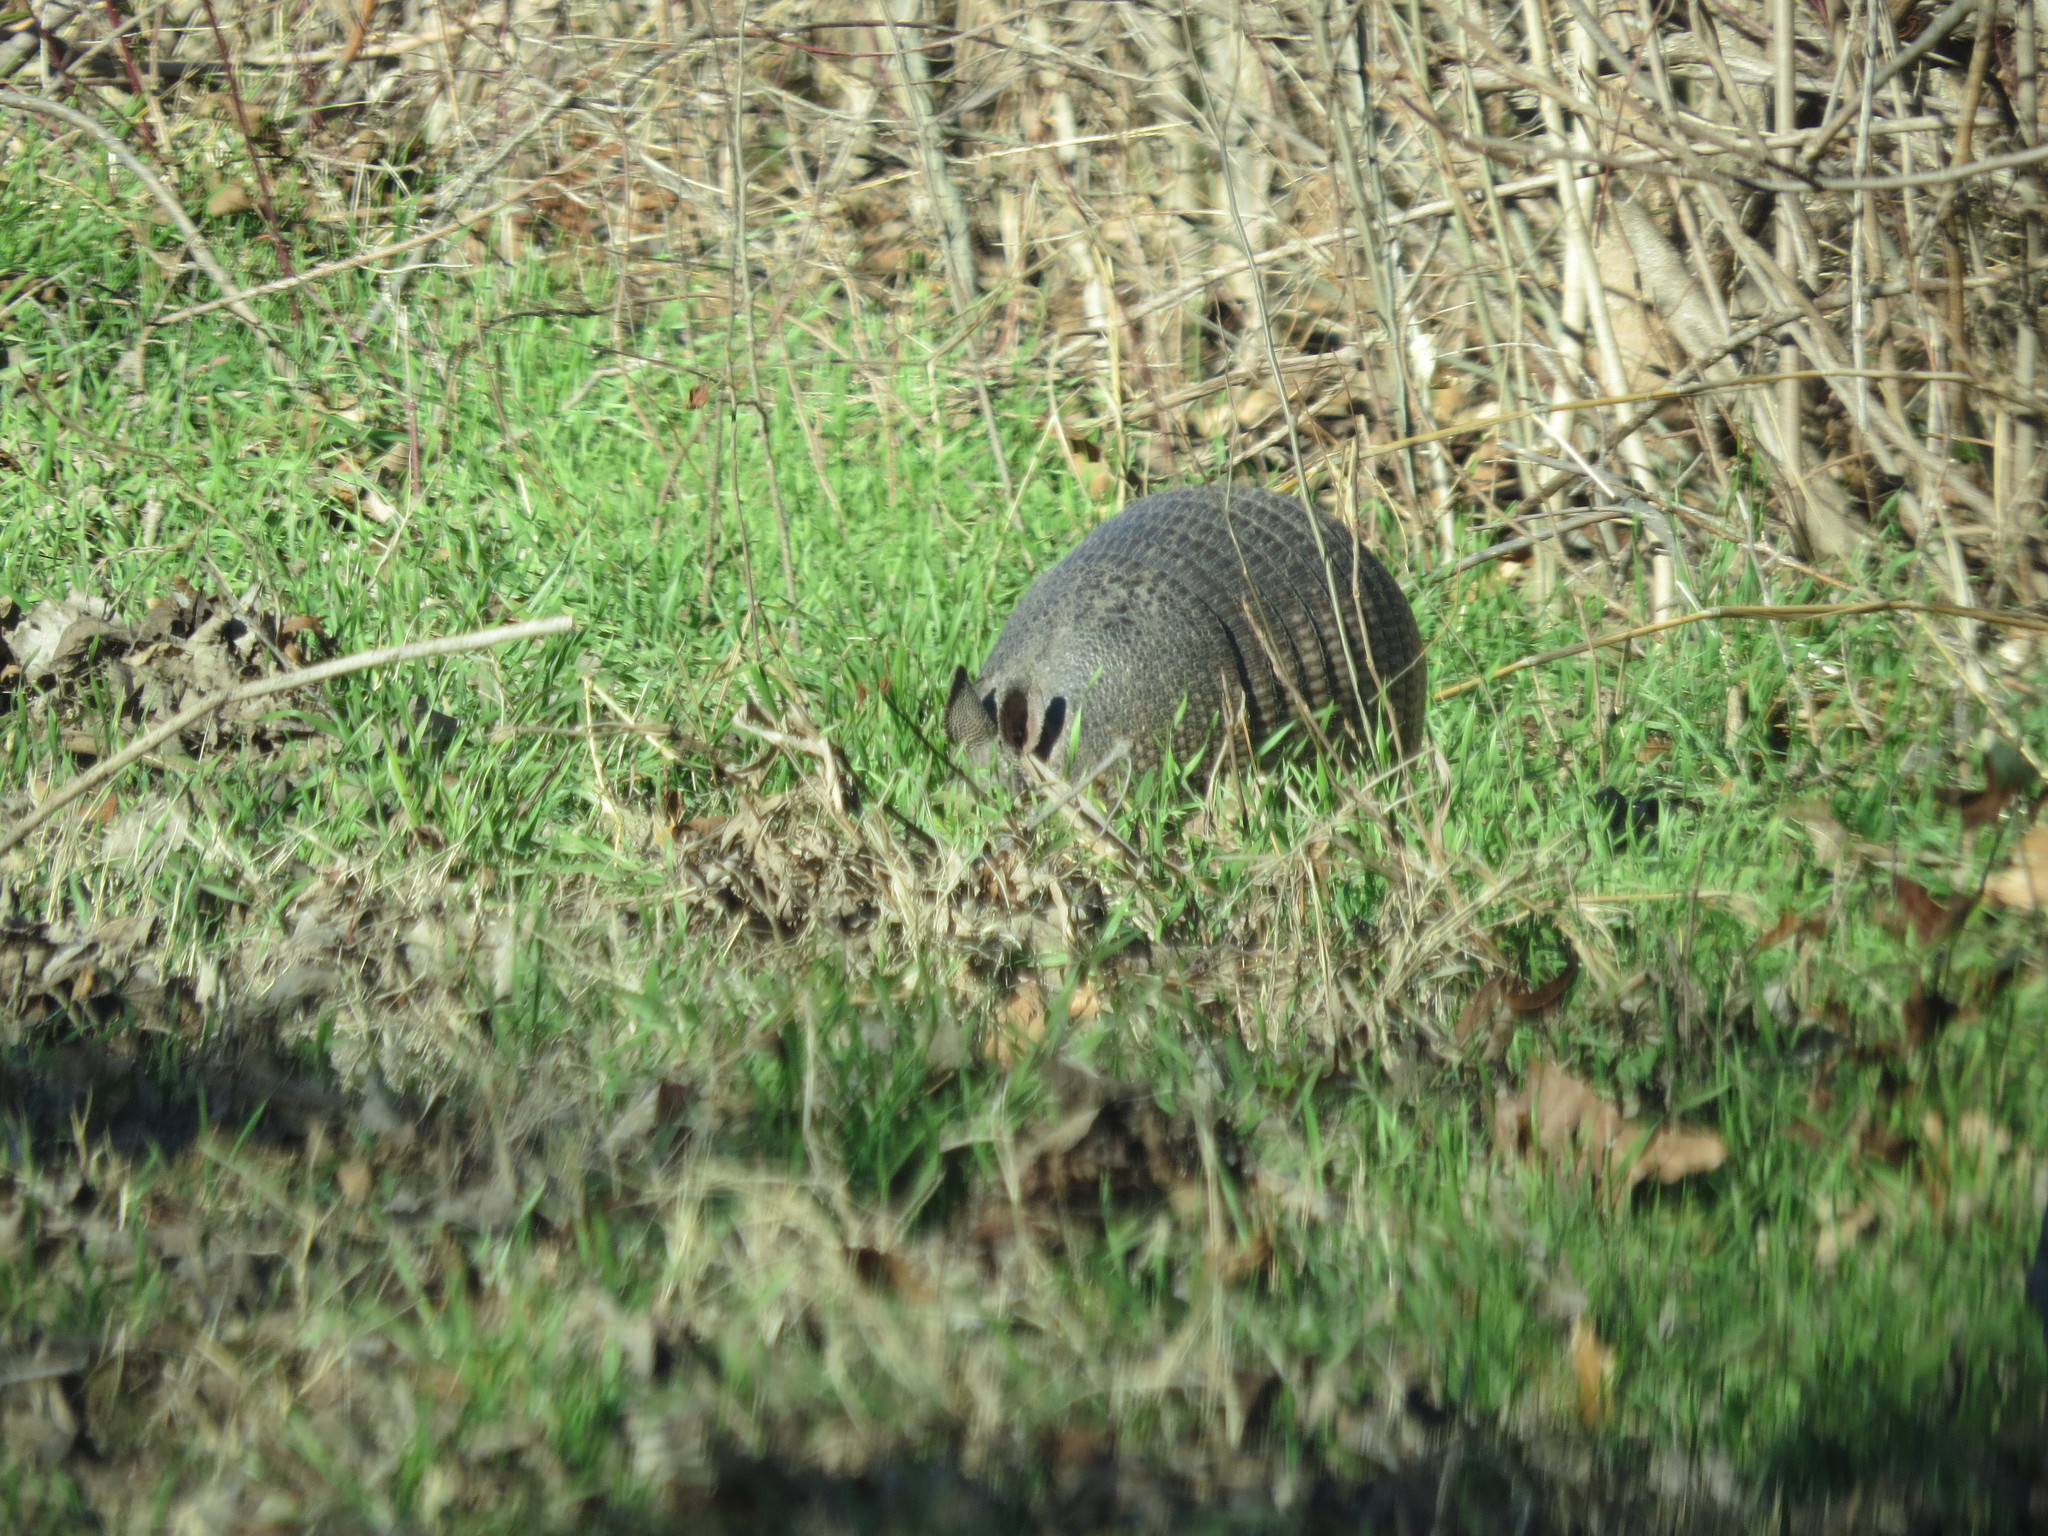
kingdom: Animalia
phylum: Chordata
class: Mammalia
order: Cingulata
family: Dasypodidae
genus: Dasypus
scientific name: Dasypus novemcinctus
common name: Nine-banded armadillo
